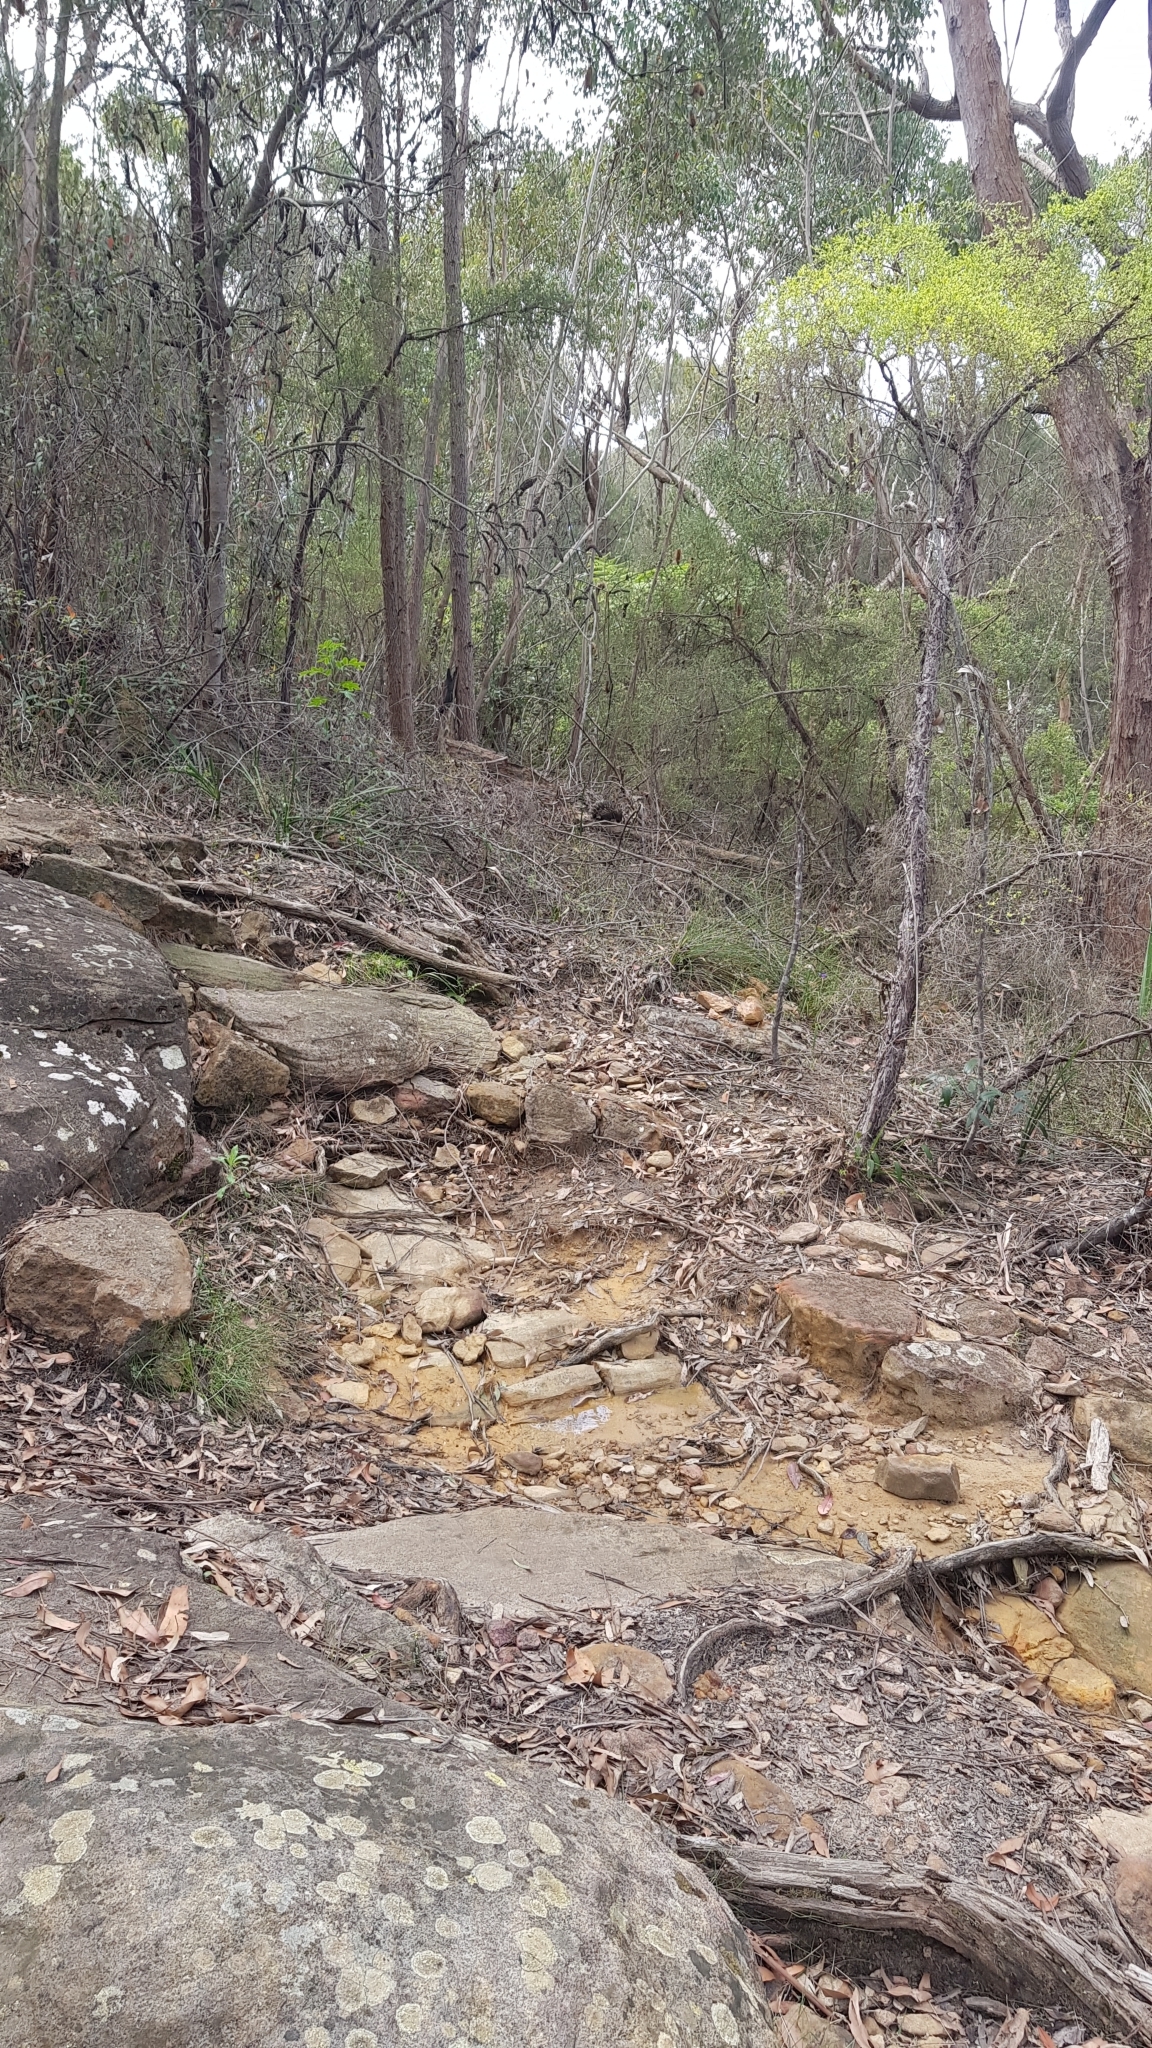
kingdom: Animalia
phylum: Chordata
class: Mammalia
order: Monotremata
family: Tachyglossidae
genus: Tachyglossus
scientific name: Tachyglossus aculeatus
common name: Short-beaked echidna
